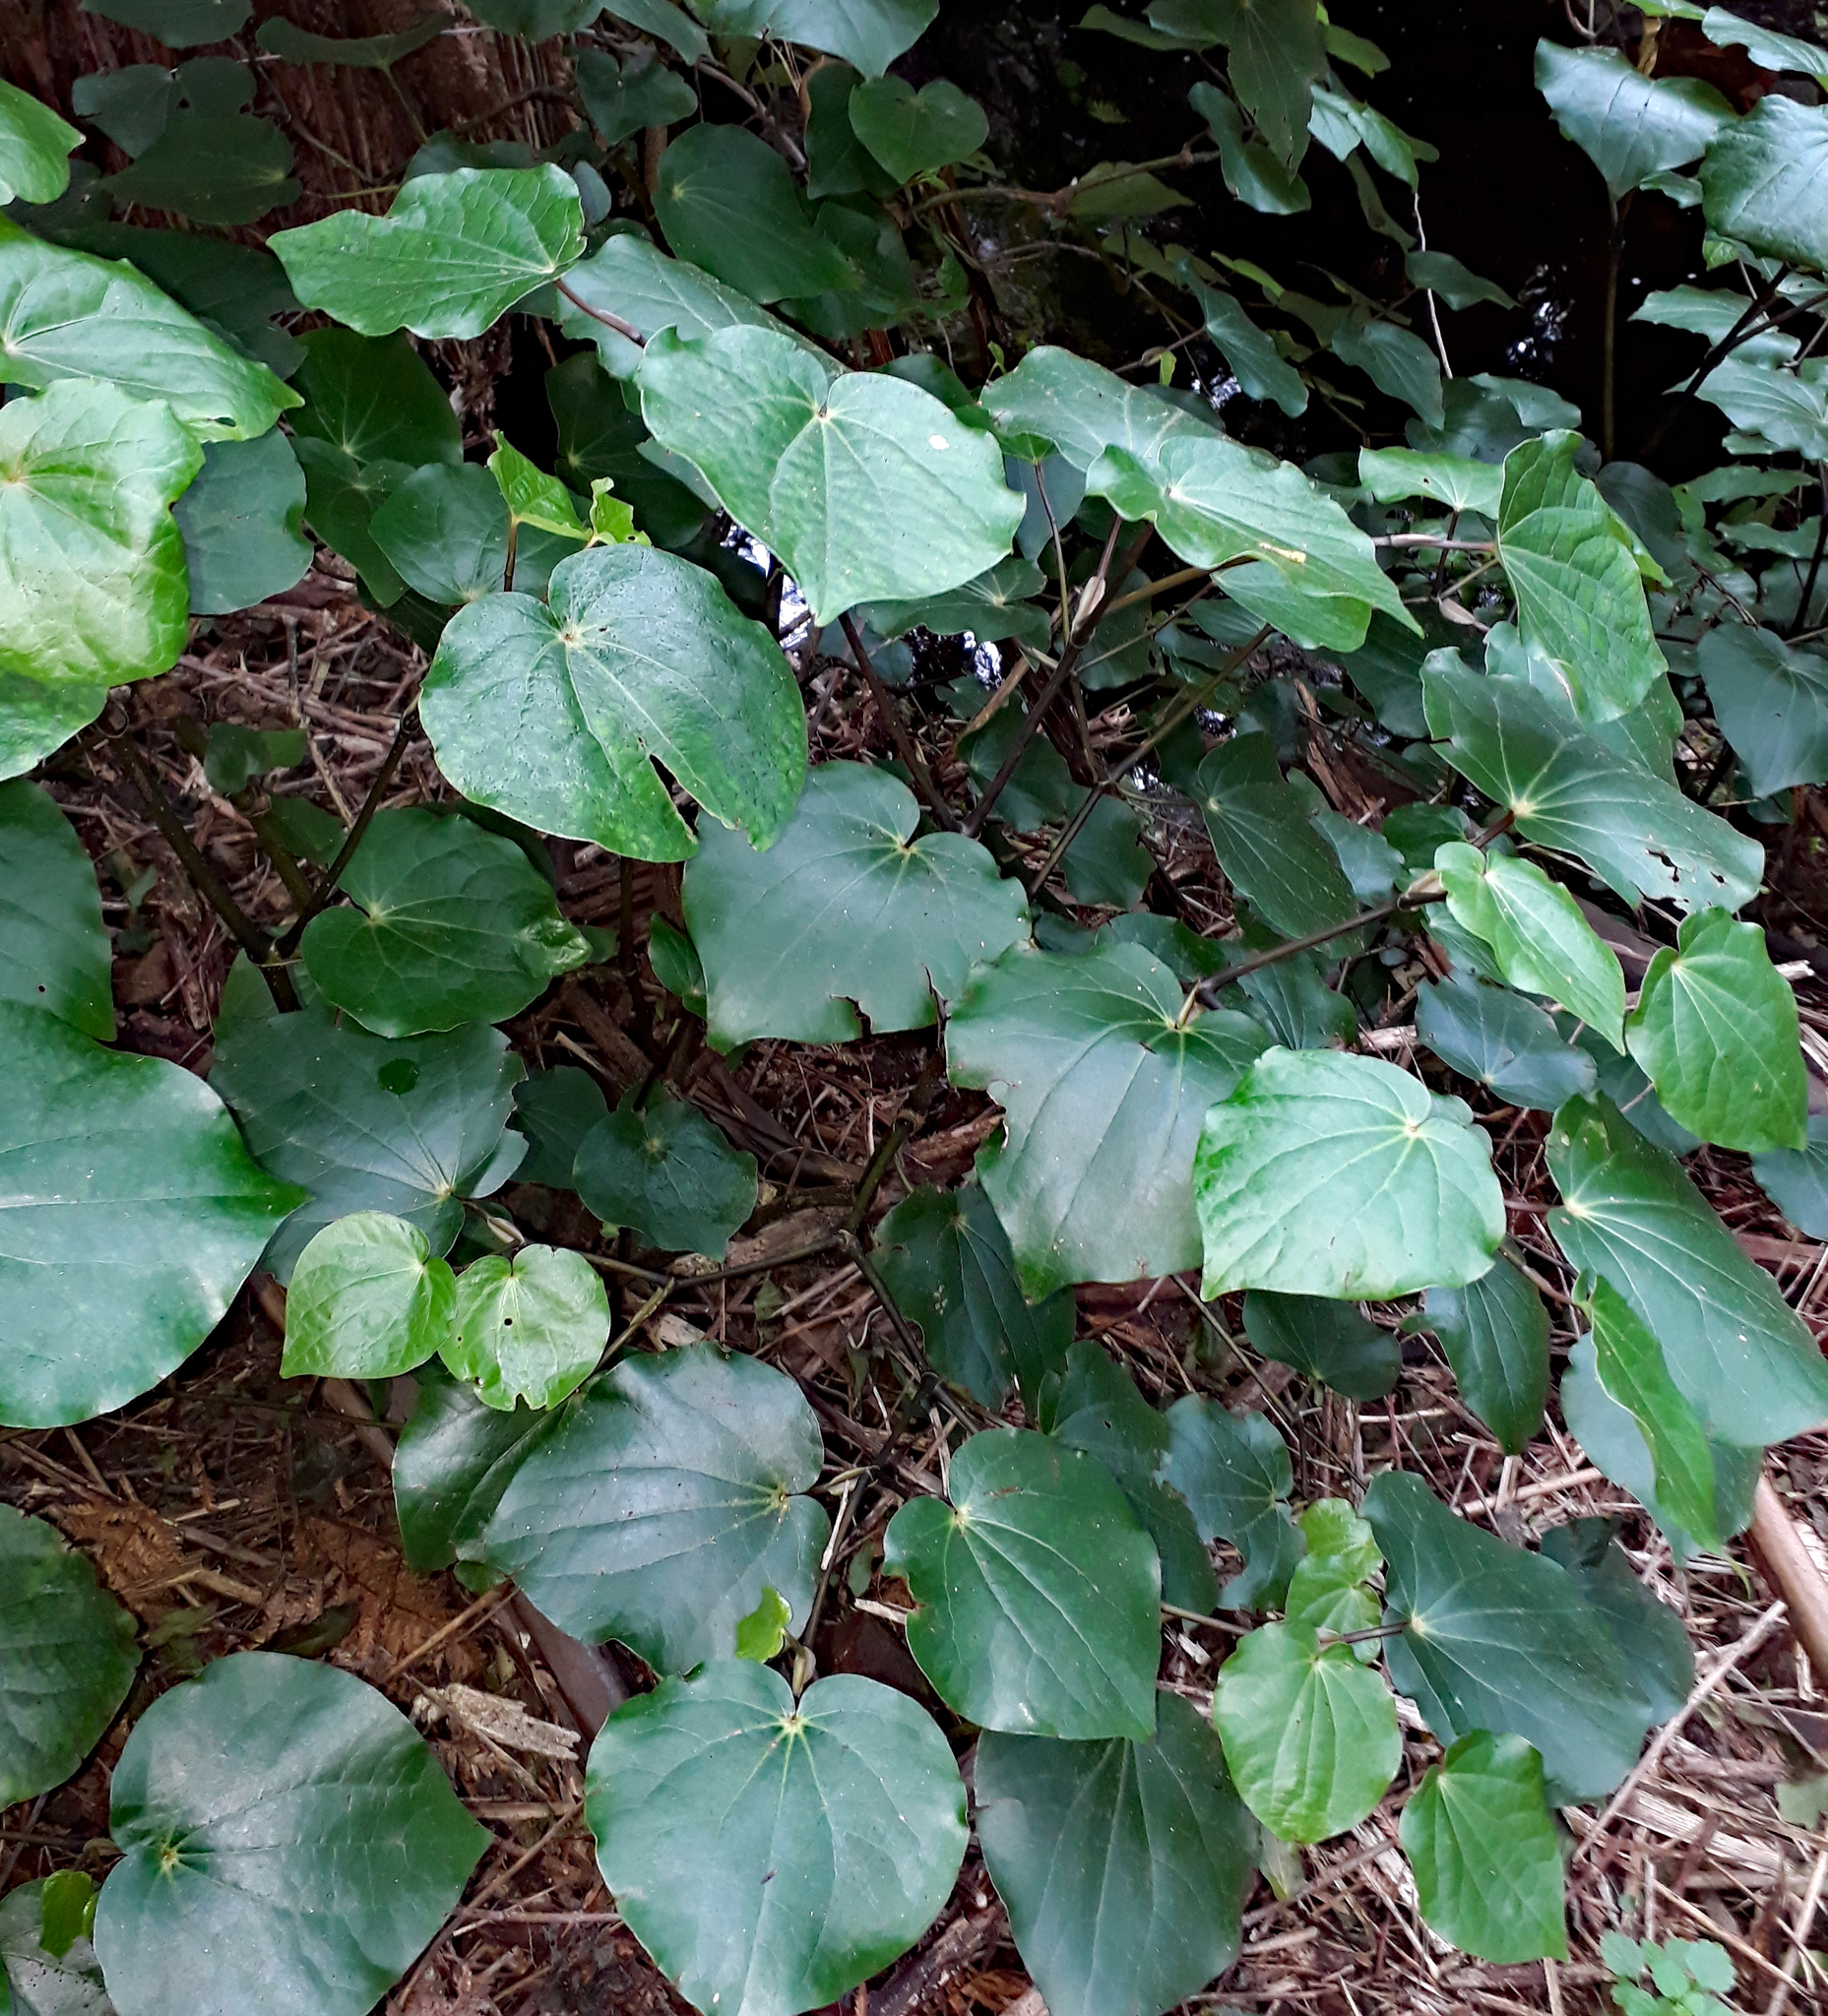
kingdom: Plantae
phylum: Tracheophyta
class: Magnoliopsida
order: Piperales
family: Piperaceae
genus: Macropiper
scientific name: Macropiper excelsum
